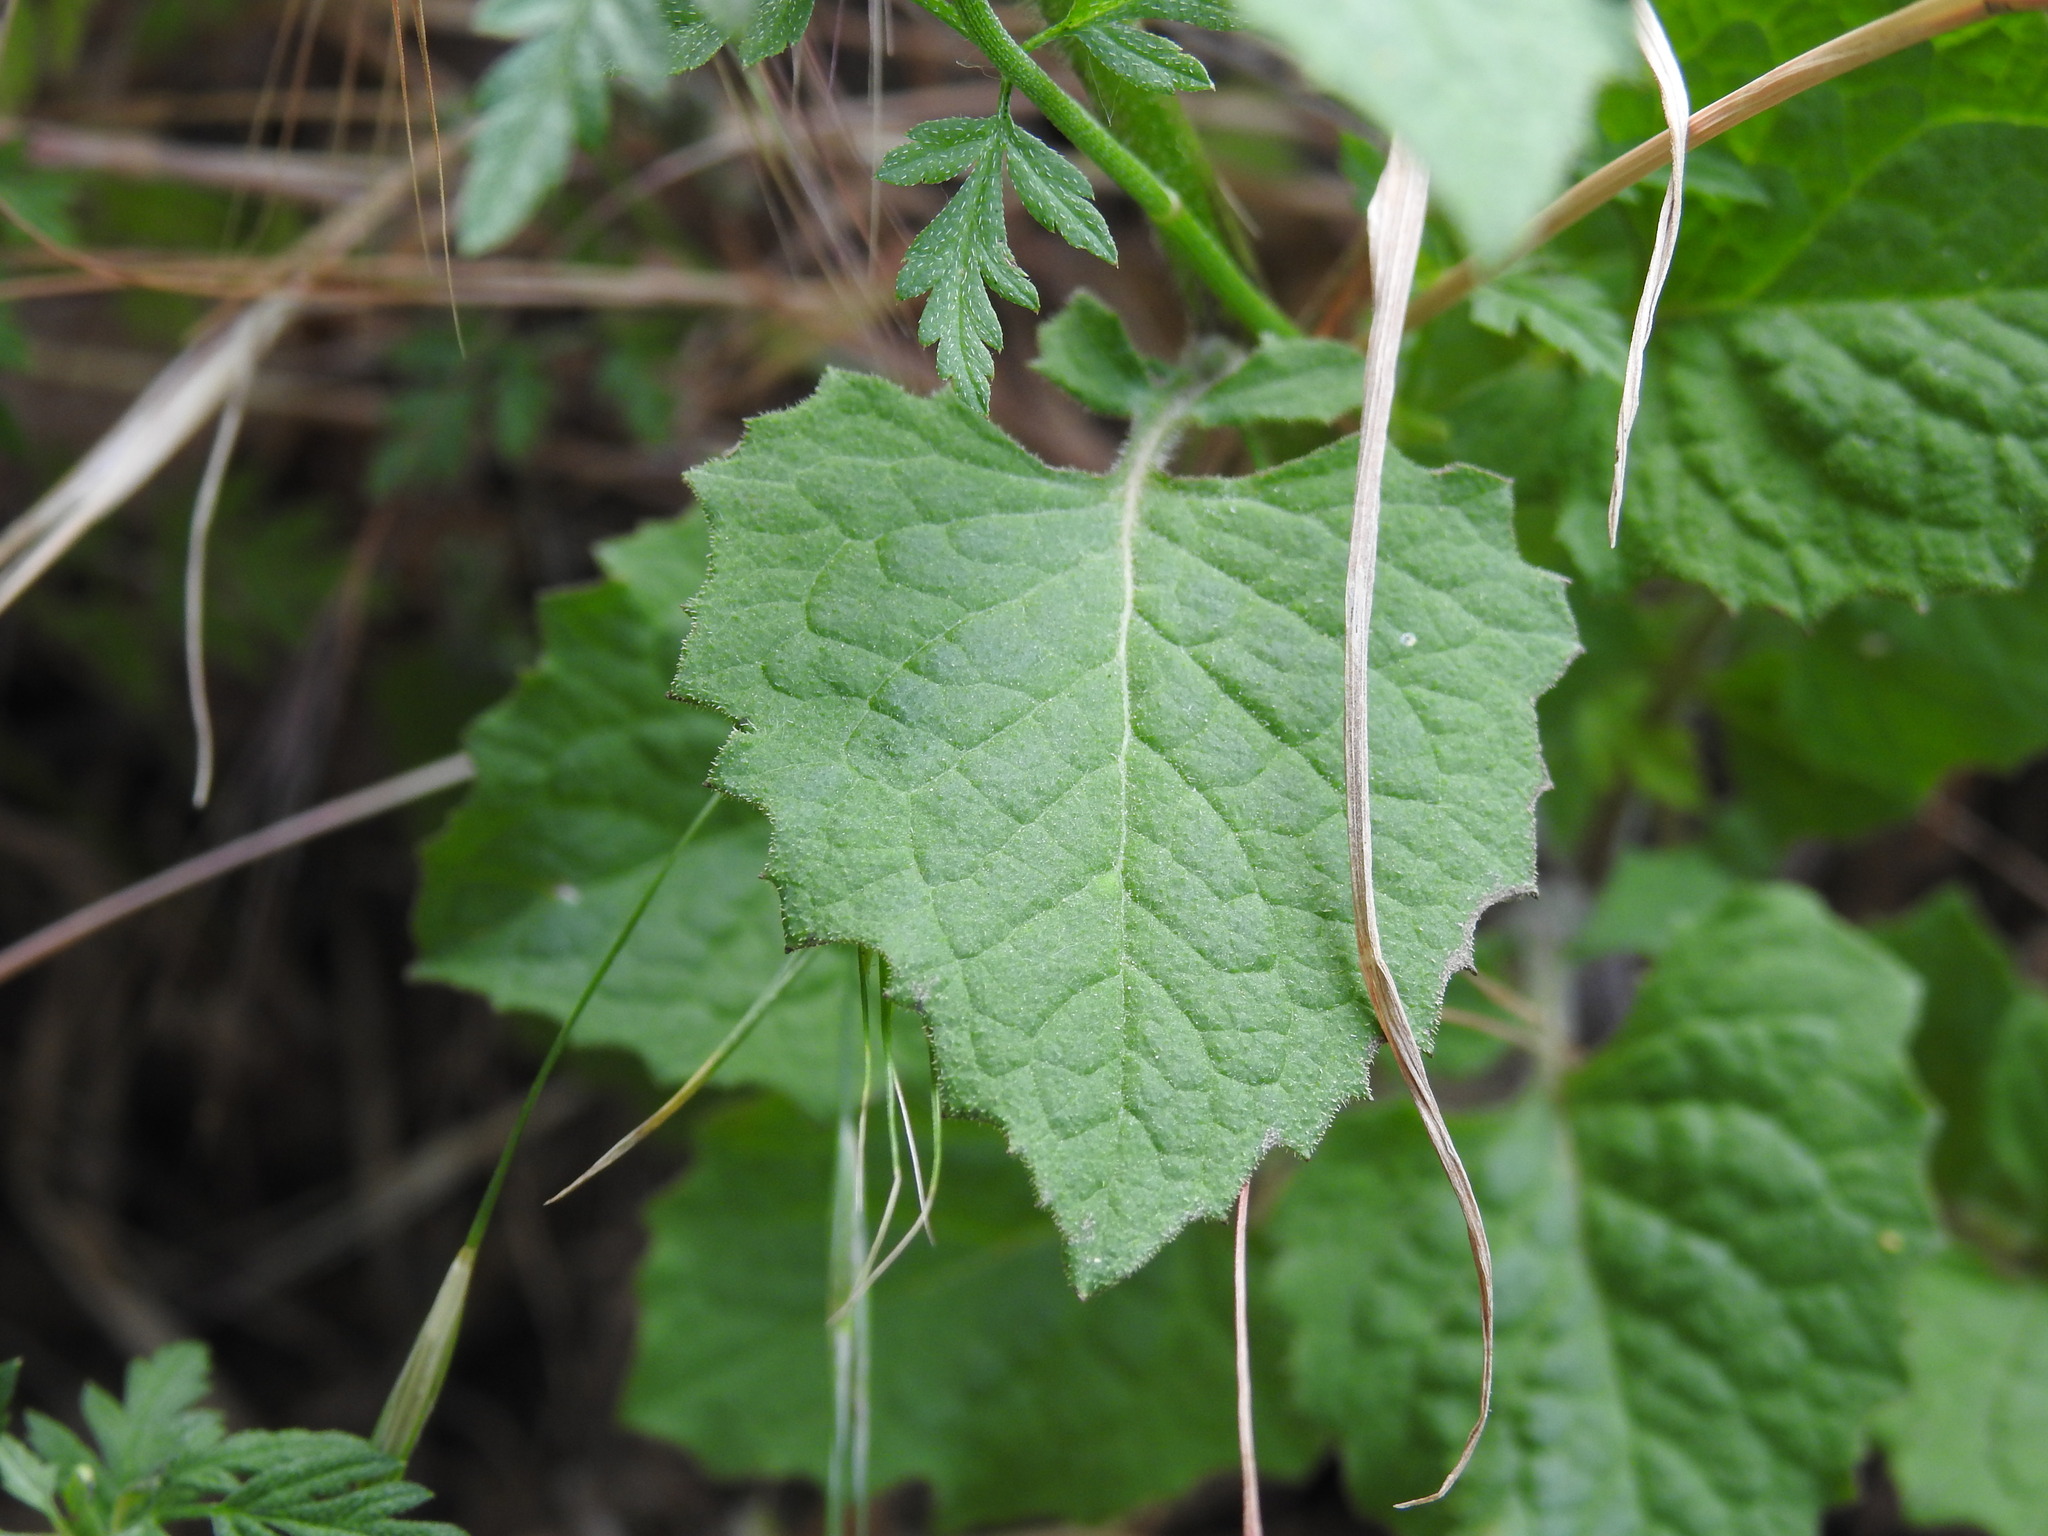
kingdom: Plantae
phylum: Tracheophyta
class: Magnoliopsida
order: Asterales
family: Asteraceae
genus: Lapsana
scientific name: Lapsana communis
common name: Nipplewort
